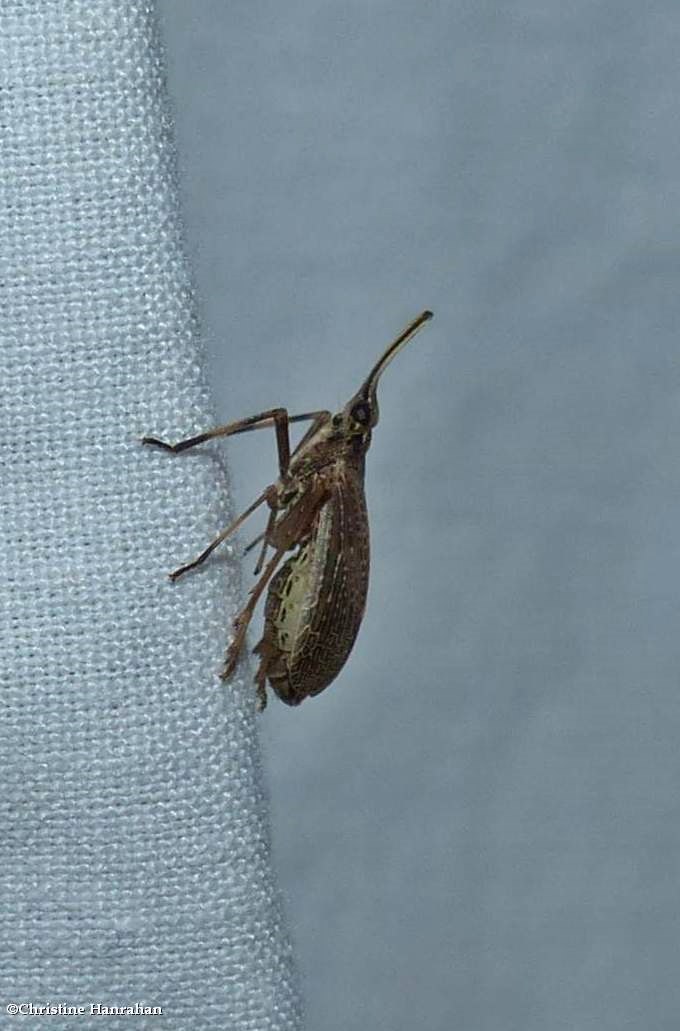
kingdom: Animalia
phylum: Arthropoda
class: Insecta
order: Hemiptera
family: Dictyopharidae
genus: Scolops
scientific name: Scolops sulcipes
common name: Partridge planthopper
